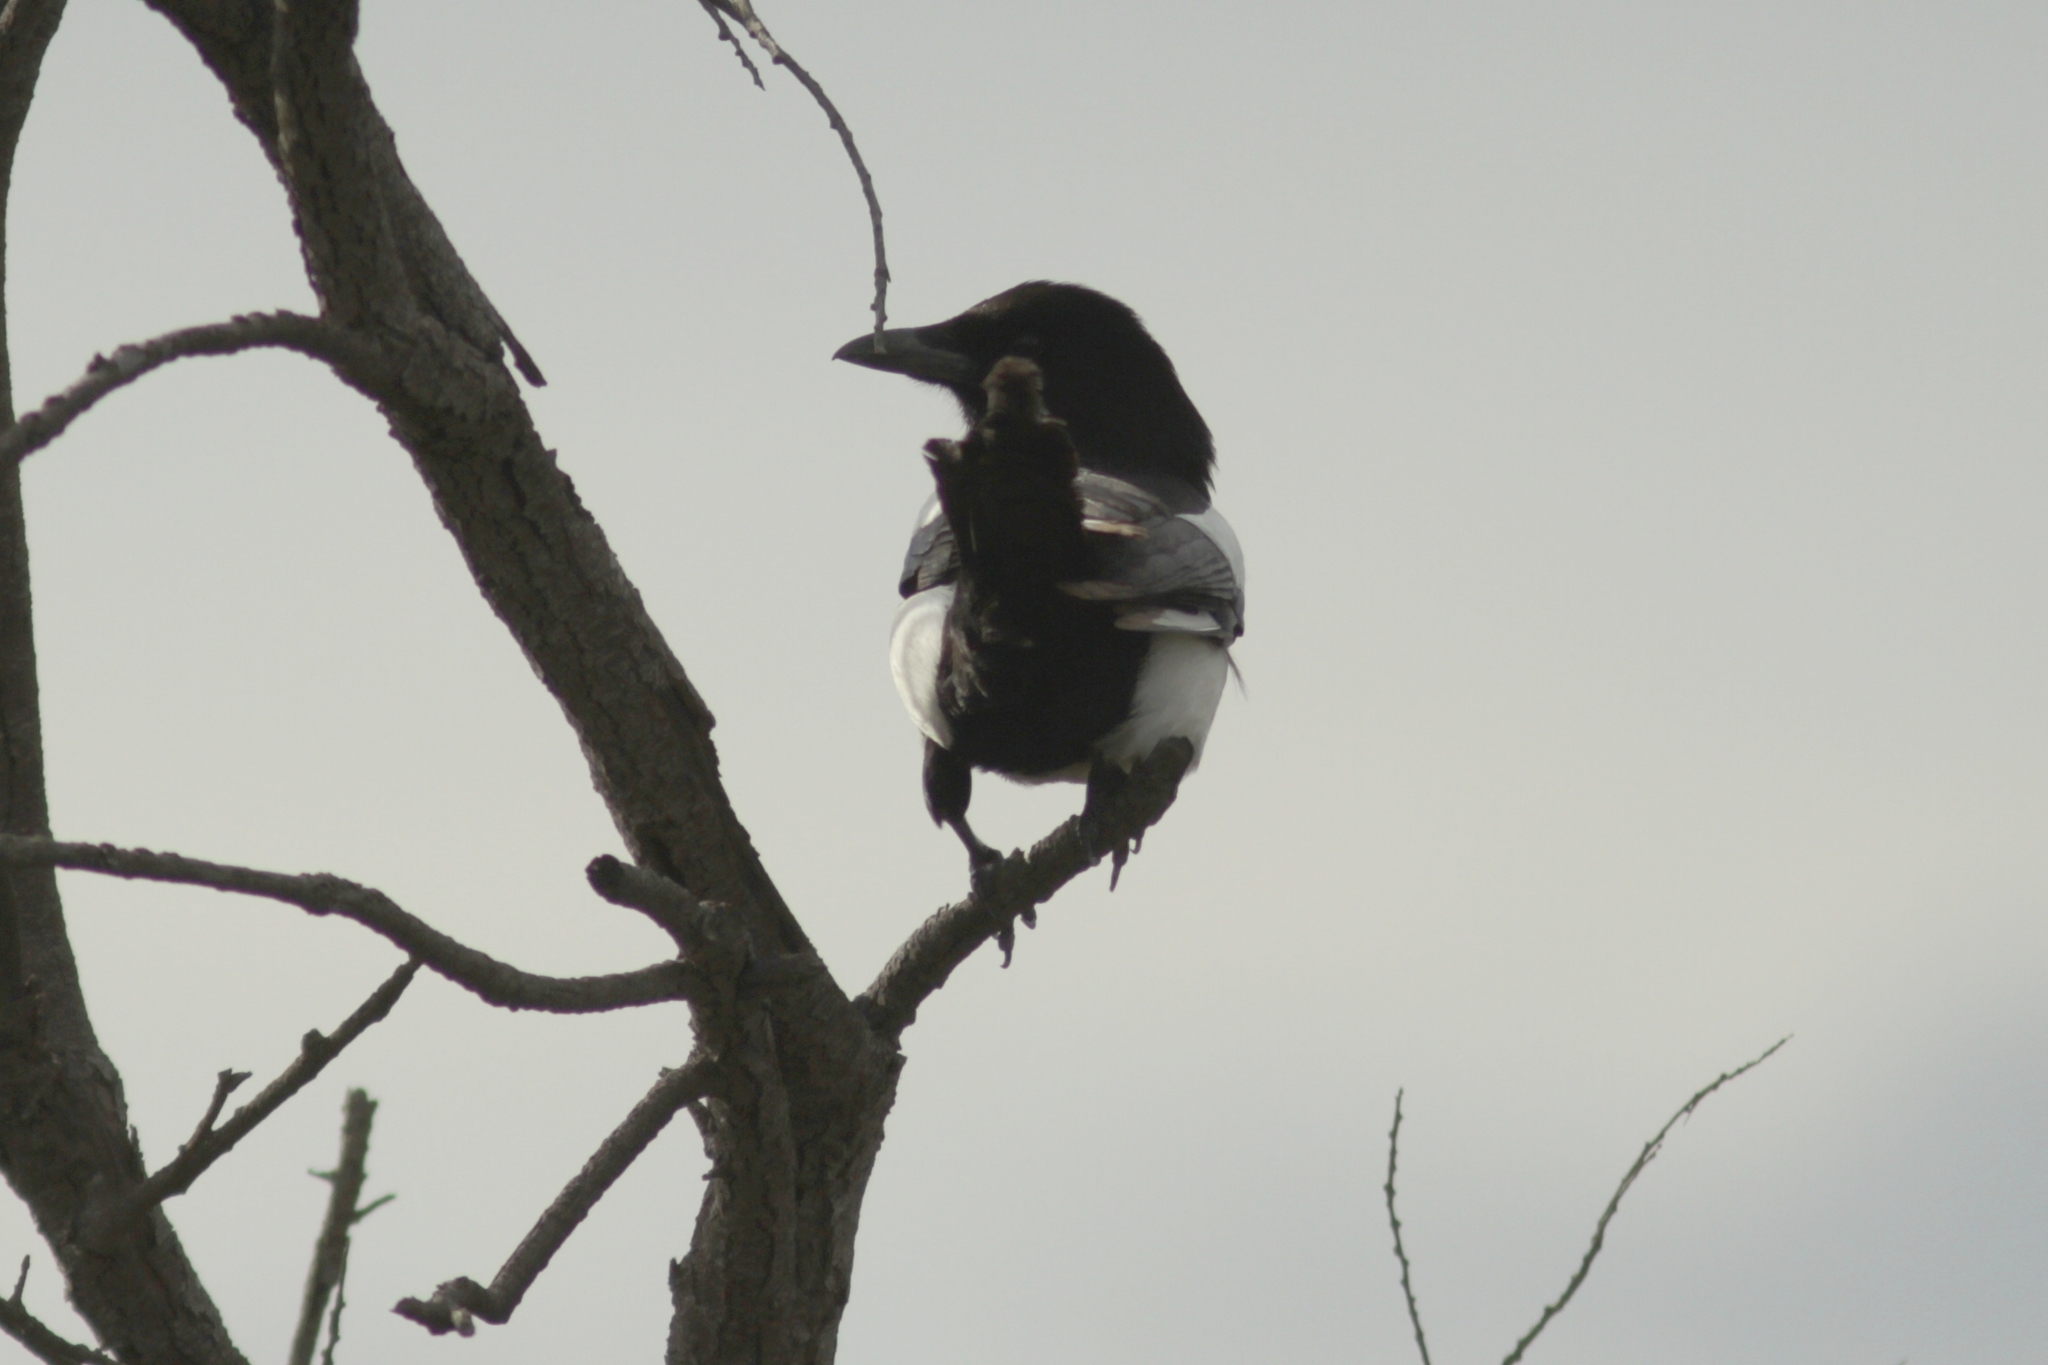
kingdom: Animalia
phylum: Chordata
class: Aves
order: Passeriformes
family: Corvidae
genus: Pica
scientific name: Pica pica
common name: Eurasian magpie
